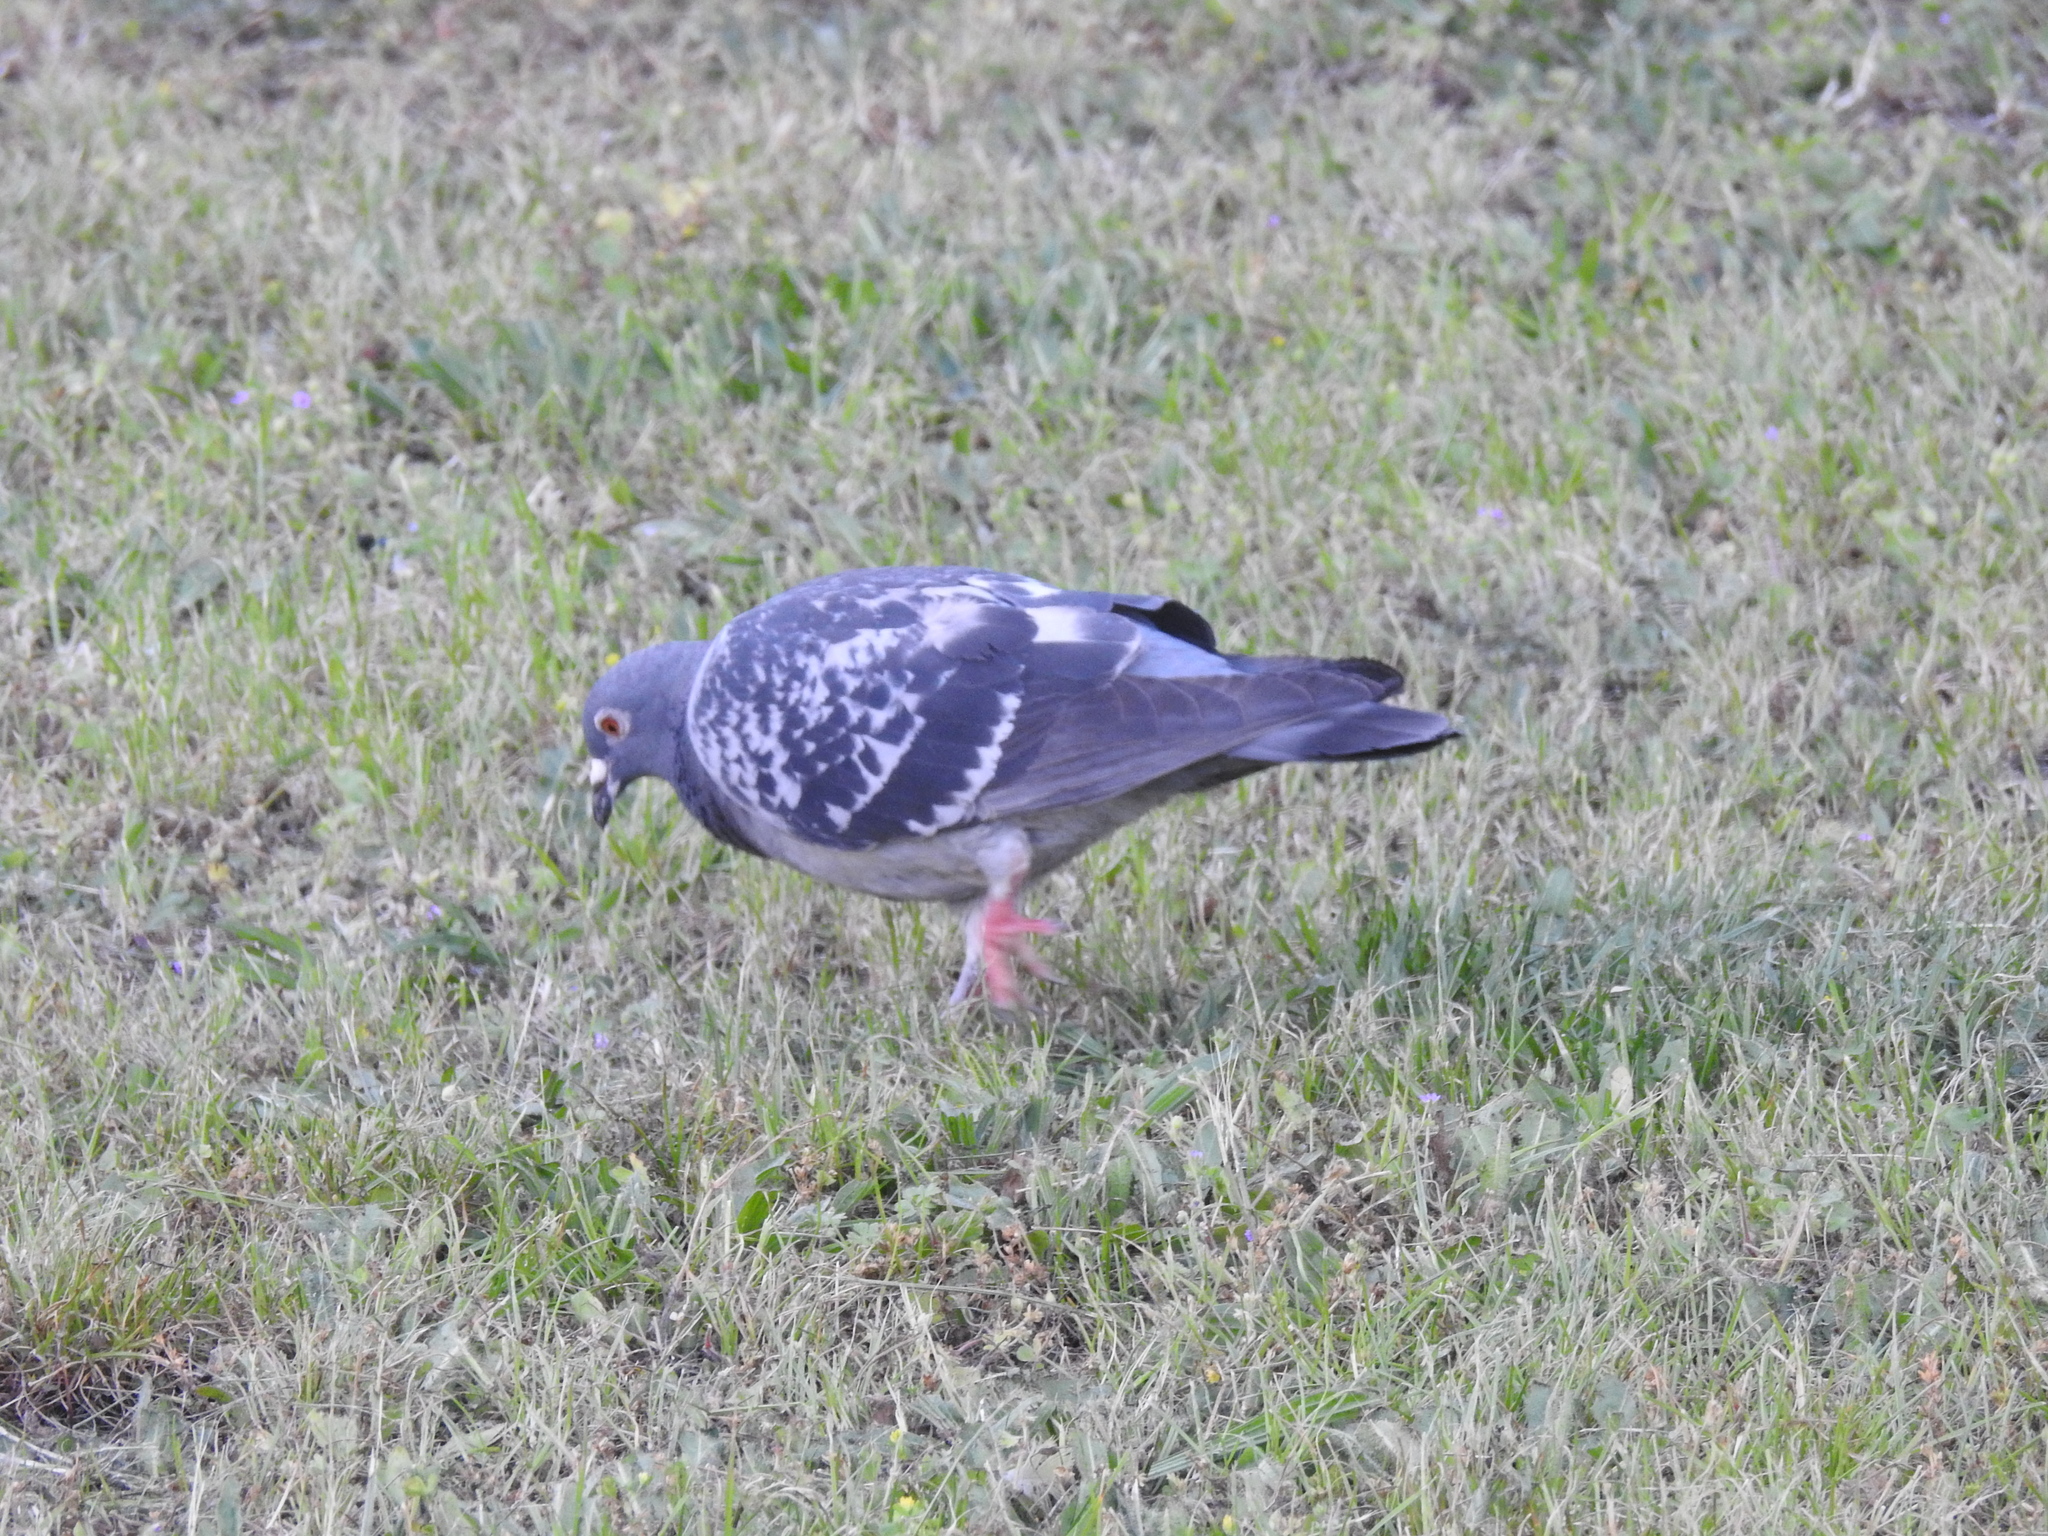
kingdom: Animalia
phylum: Chordata
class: Aves
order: Columbiformes
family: Columbidae
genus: Columba
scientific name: Columba livia
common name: Rock pigeon
